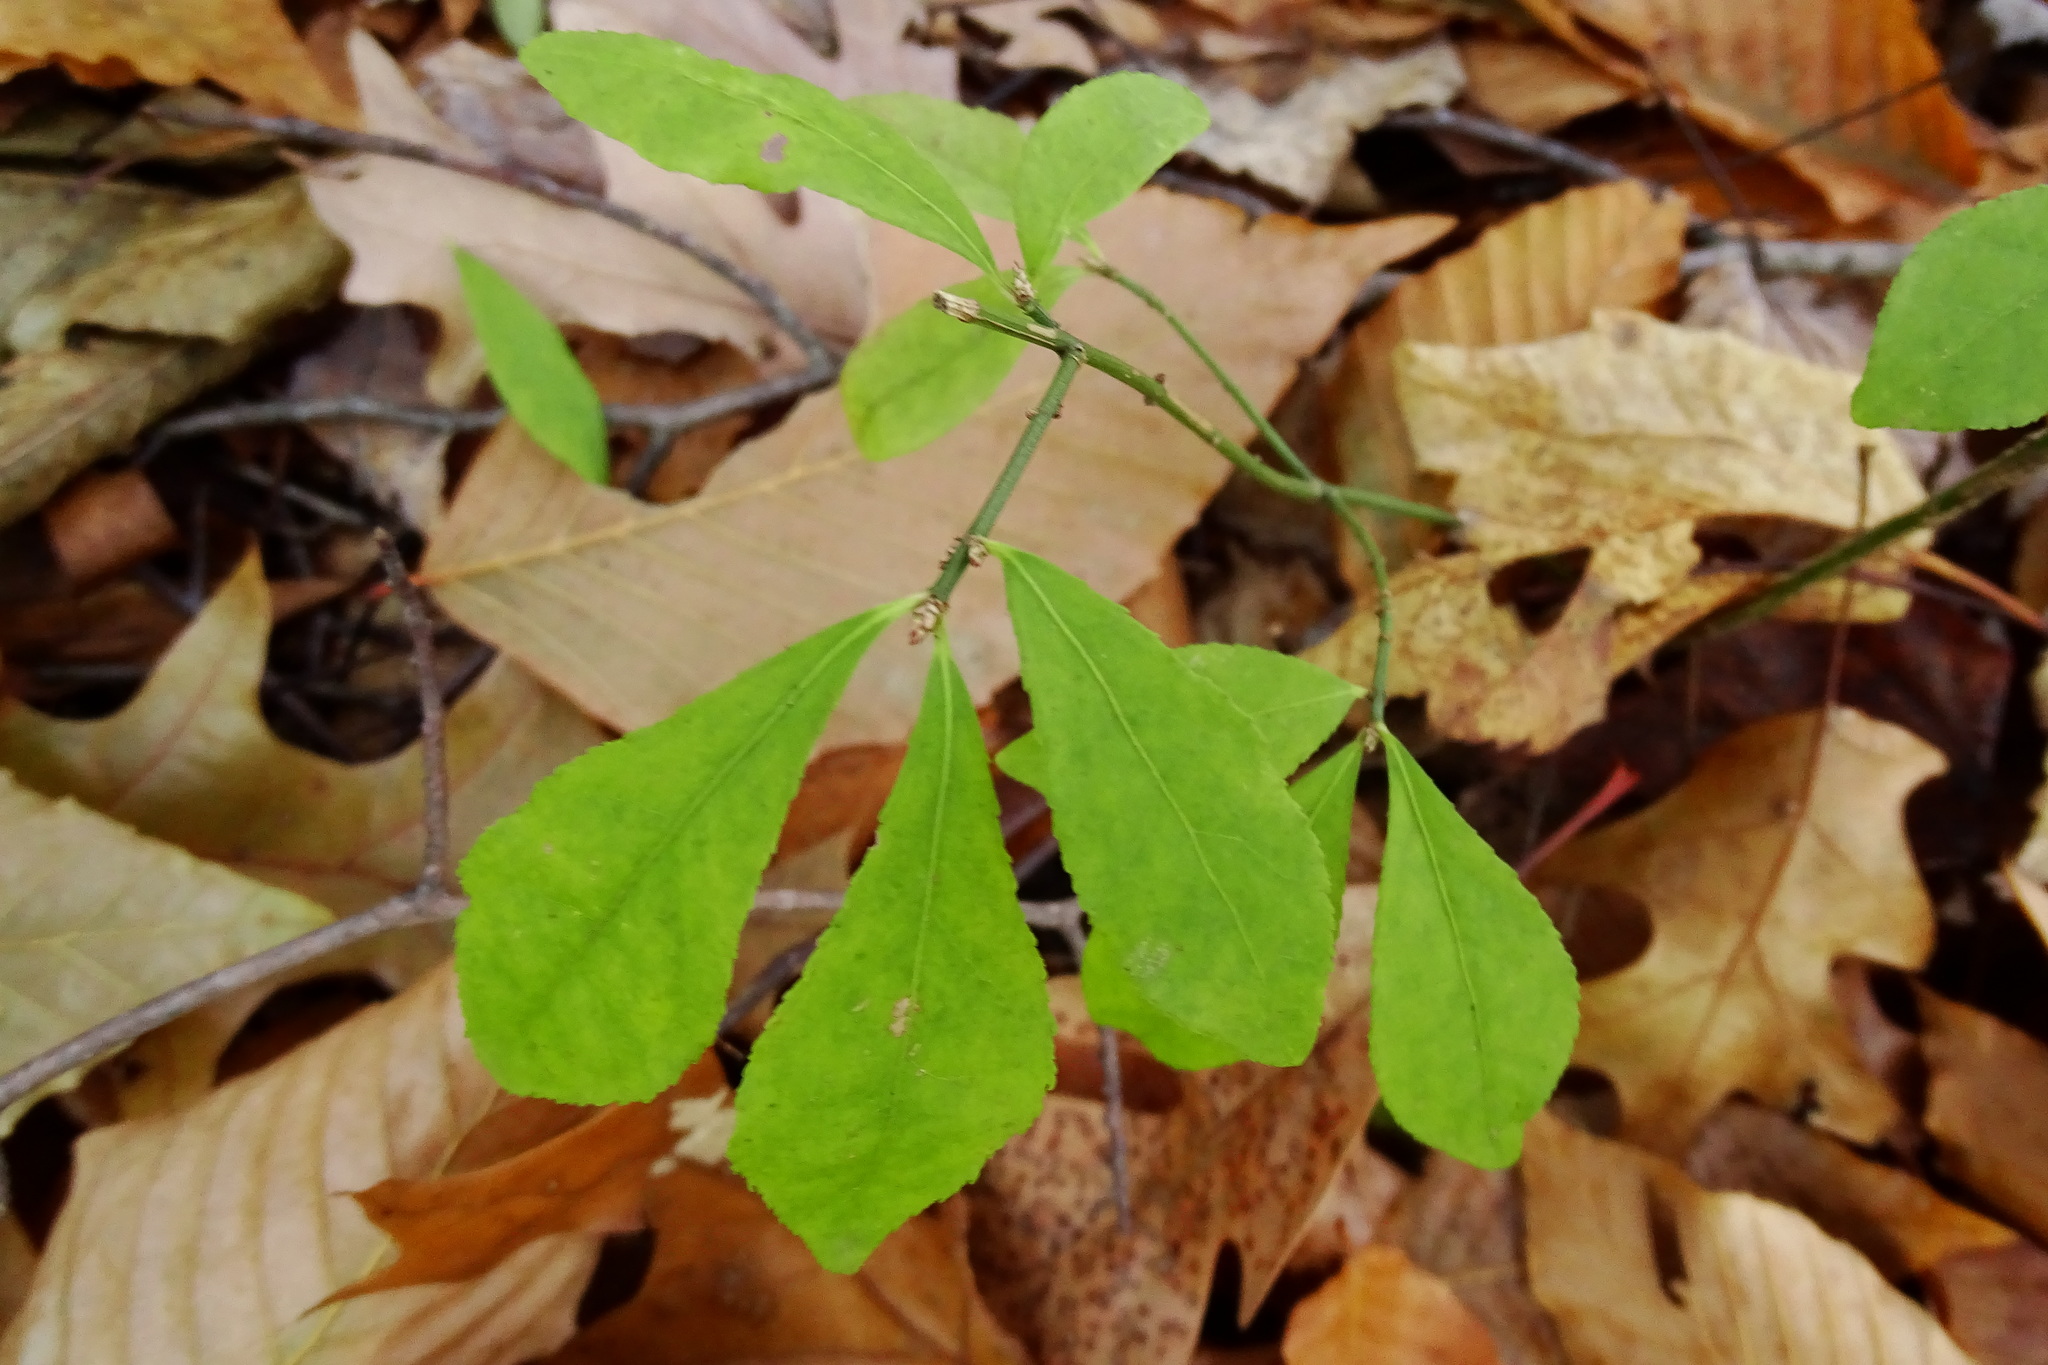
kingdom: Plantae
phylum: Tracheophyta
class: Magnoliopsida
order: Celastrales
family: Celastraceae
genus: Euonymus
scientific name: Euonymus obovatus
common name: Running strawberry-bush
